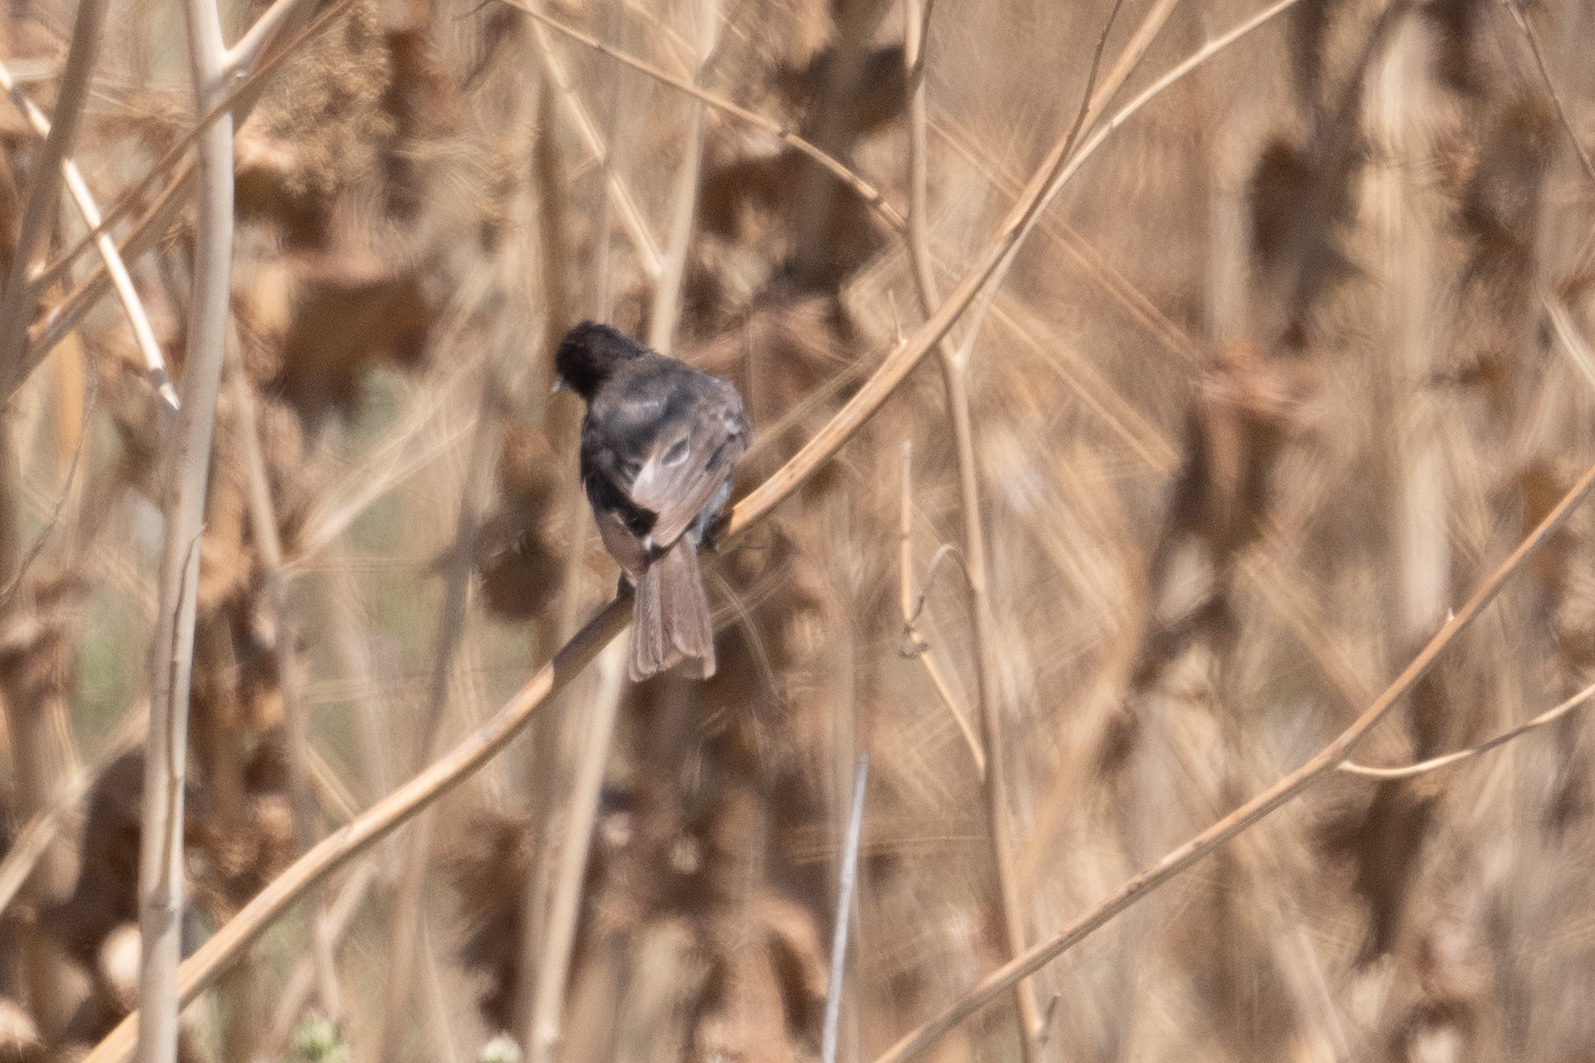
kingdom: Animalia
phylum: Chordata
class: Aves
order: Passeriformes
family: Tyrannidae
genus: Sayornis
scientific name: Sayornis nigricans
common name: Black phoebe
